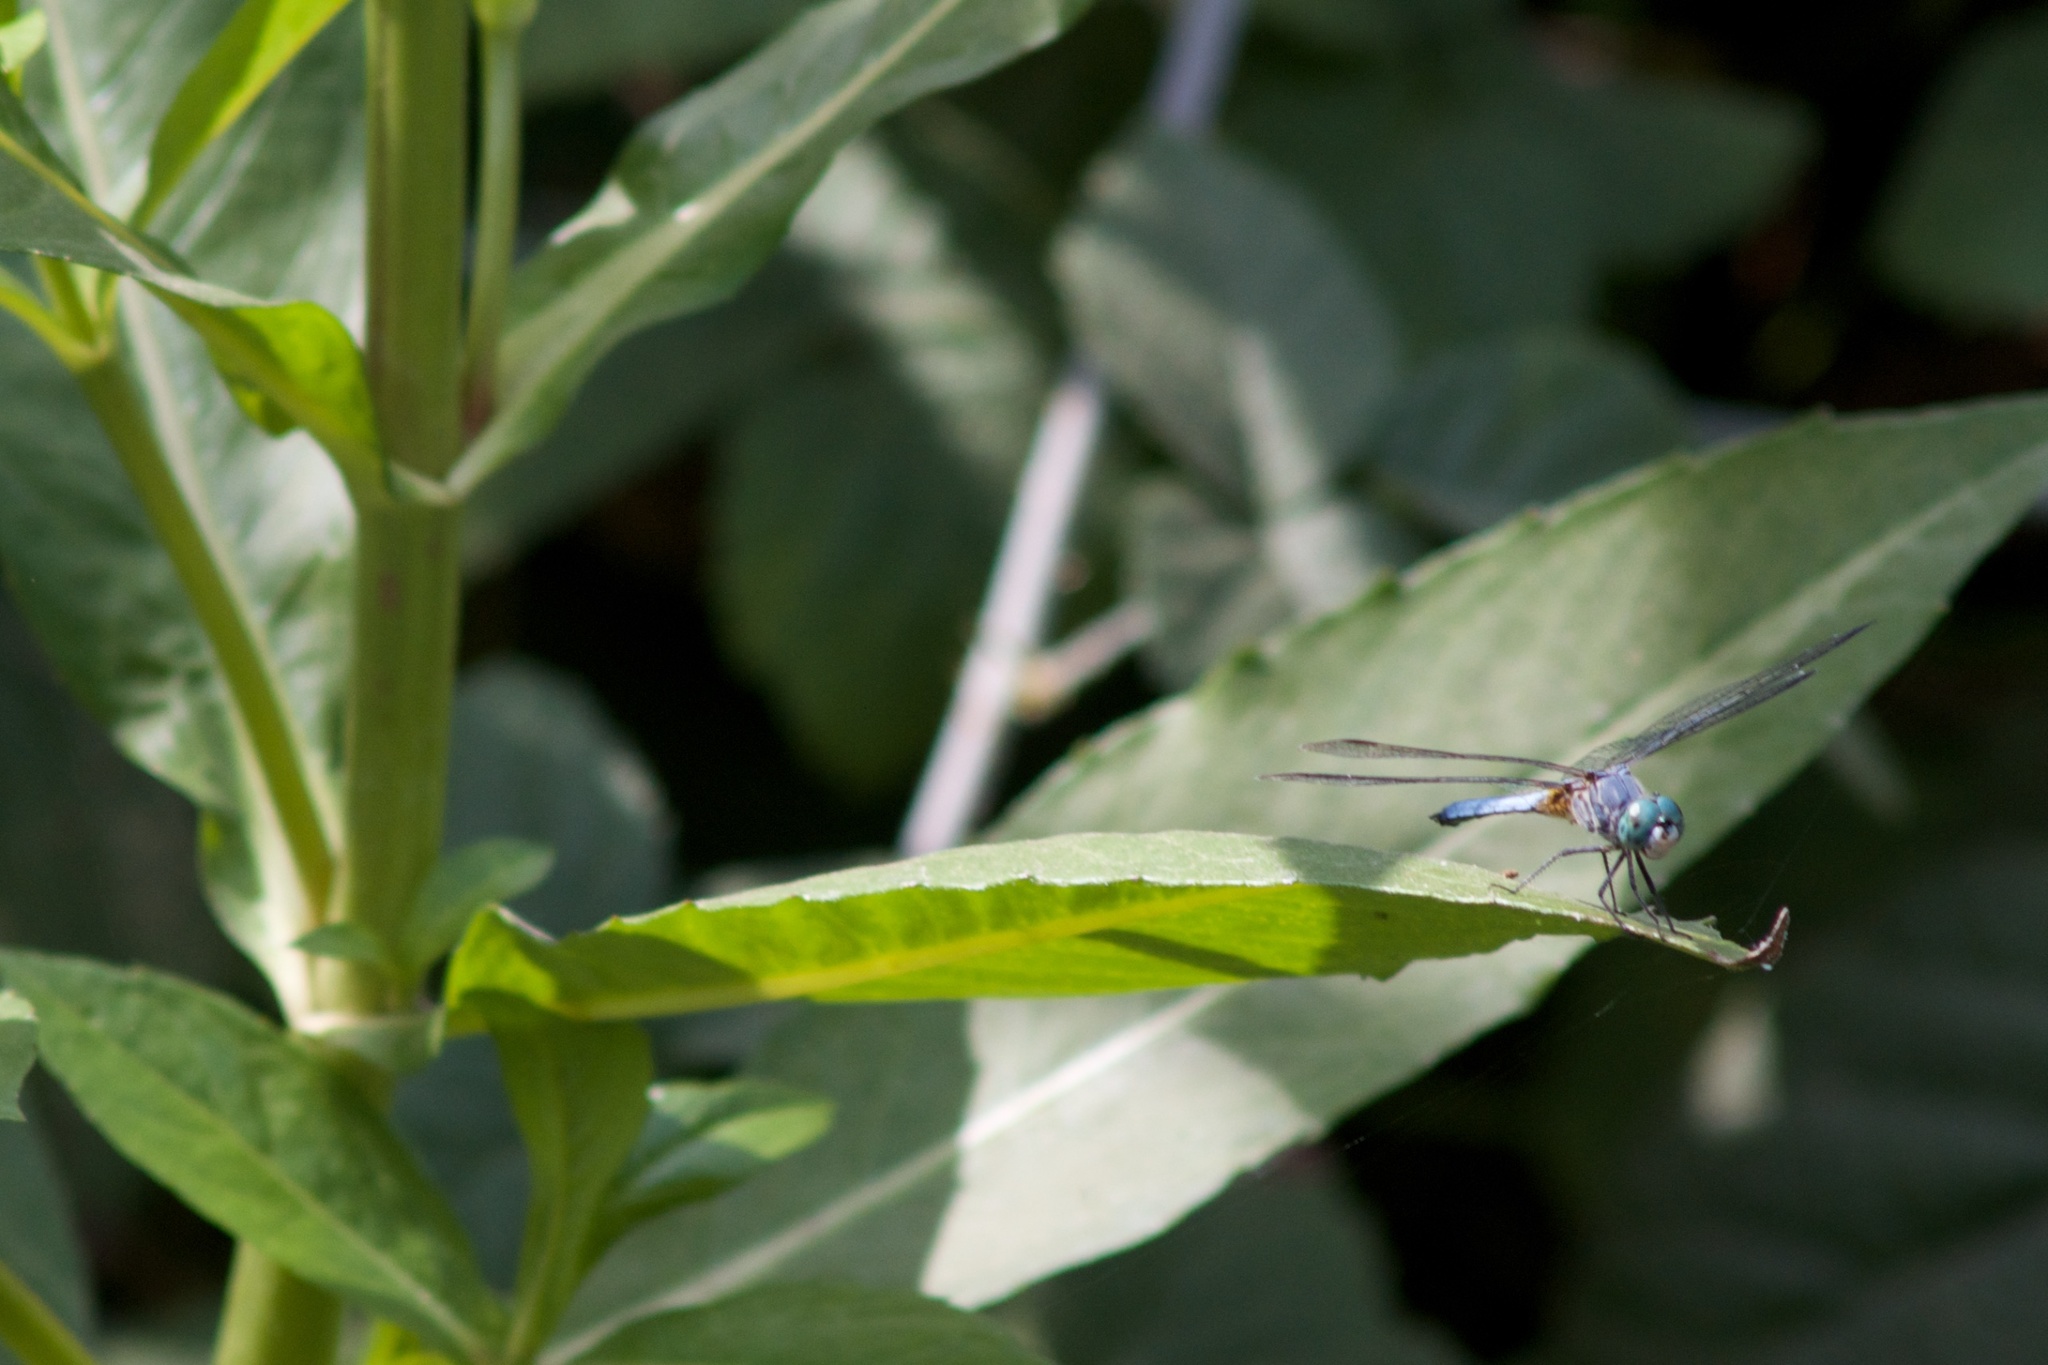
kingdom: Animalia
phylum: Arthropoda
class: Insecta
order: Odonata
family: Libellulidae
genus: Pachydiplax
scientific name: Pachydiplax longipennis
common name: Blue dasher
